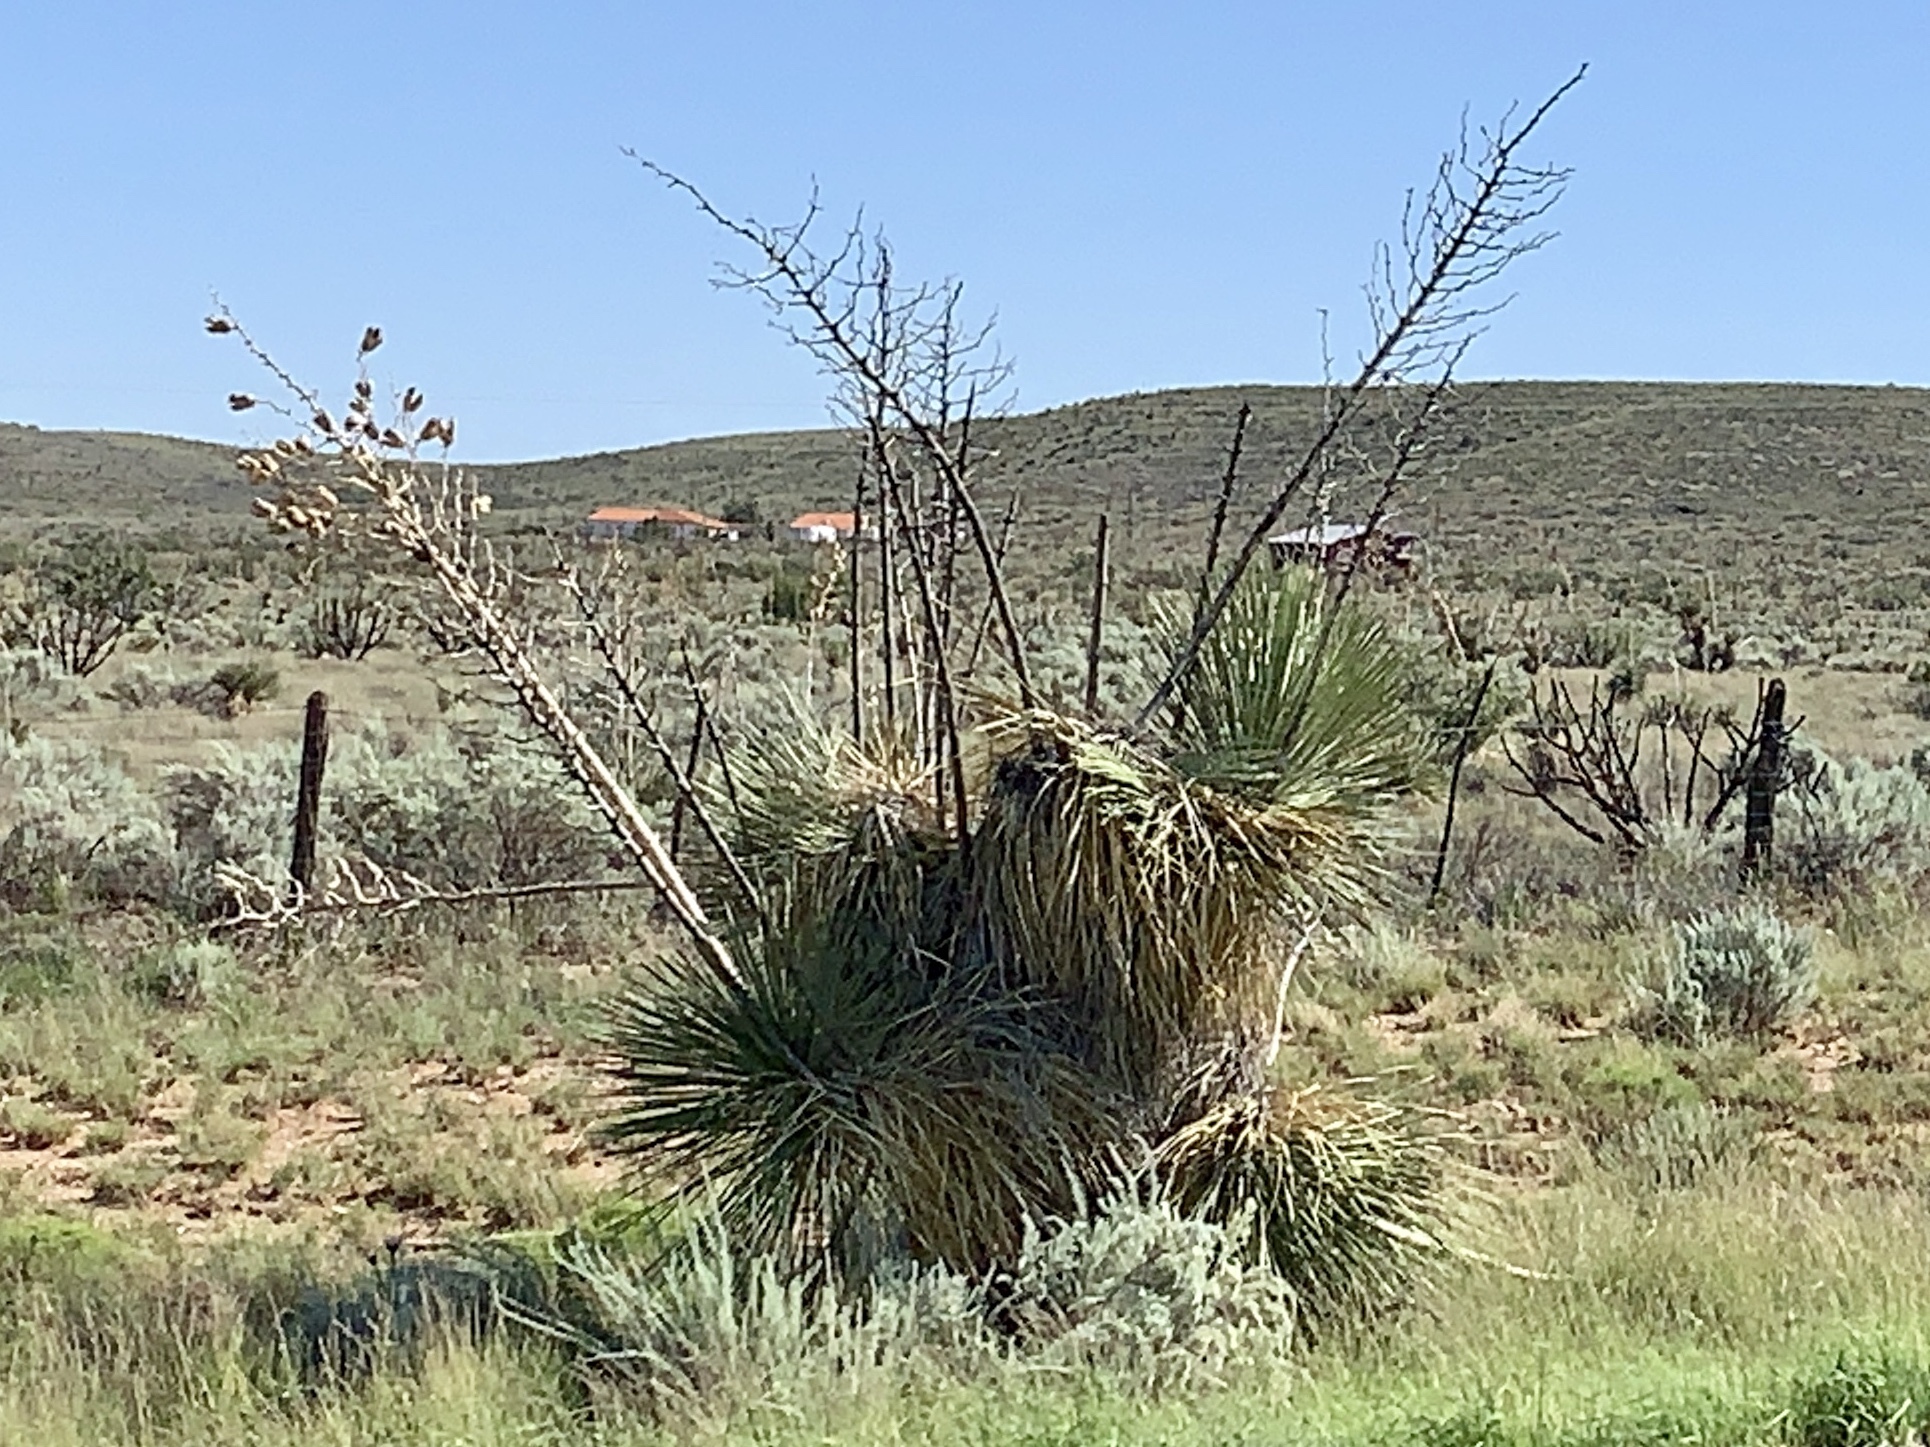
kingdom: Plantae
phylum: Tracheophyta
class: Liliopsida
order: Asparagales
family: Asparagaceae
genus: Yucca
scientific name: Yucca elata
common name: Palmella
